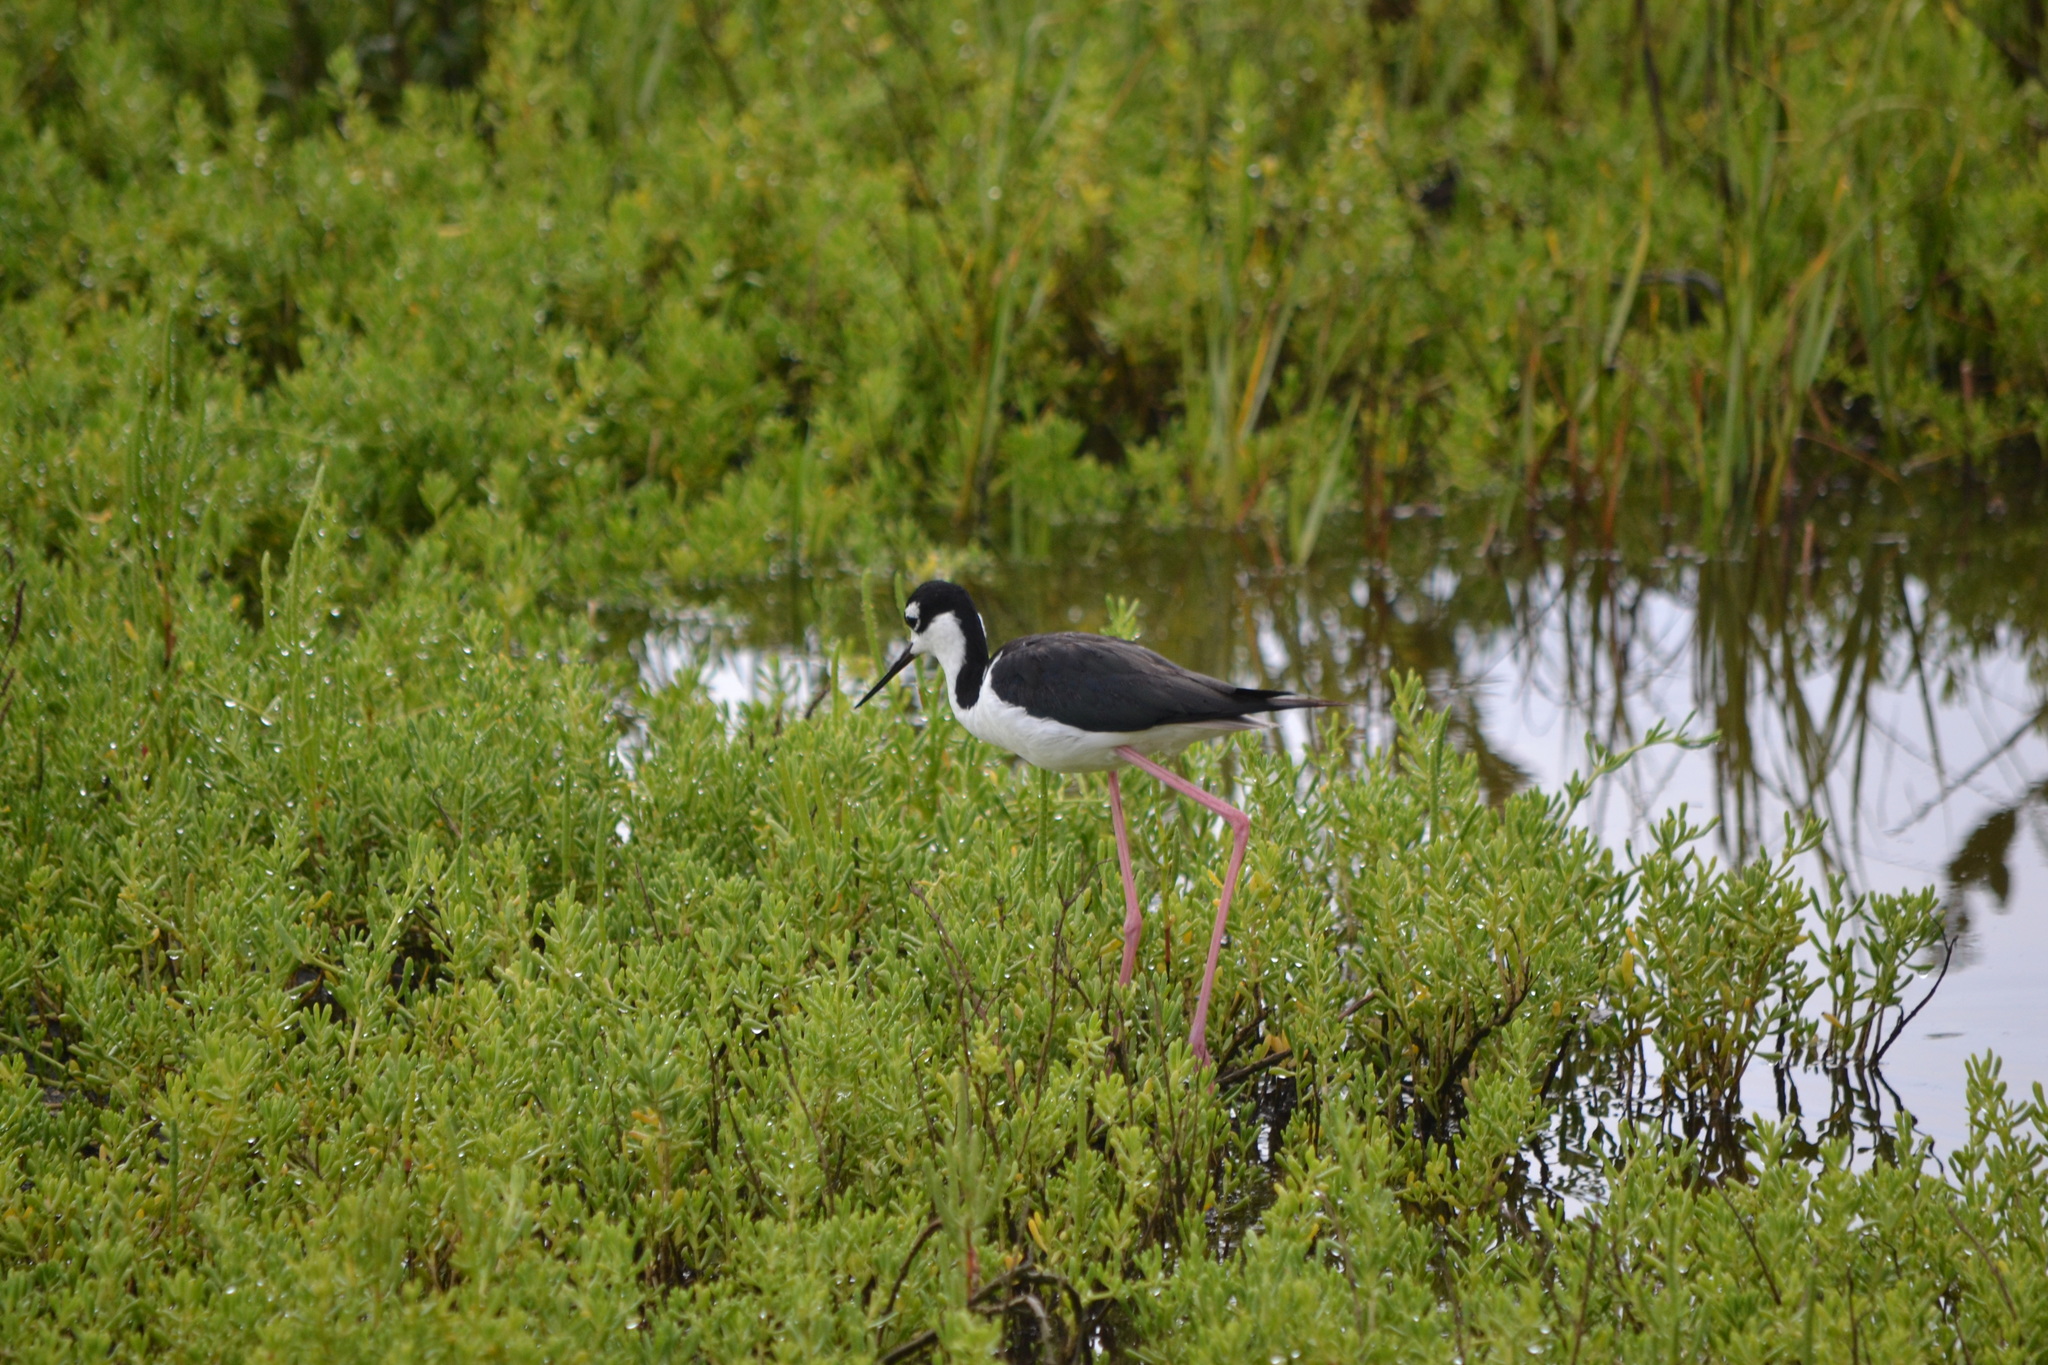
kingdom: Animalia
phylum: Chordata
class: Aves
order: Charadriiformes
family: Recurvirostridae
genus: Himantopus
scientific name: Himantopus mexicanus
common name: Black-necked stilt
